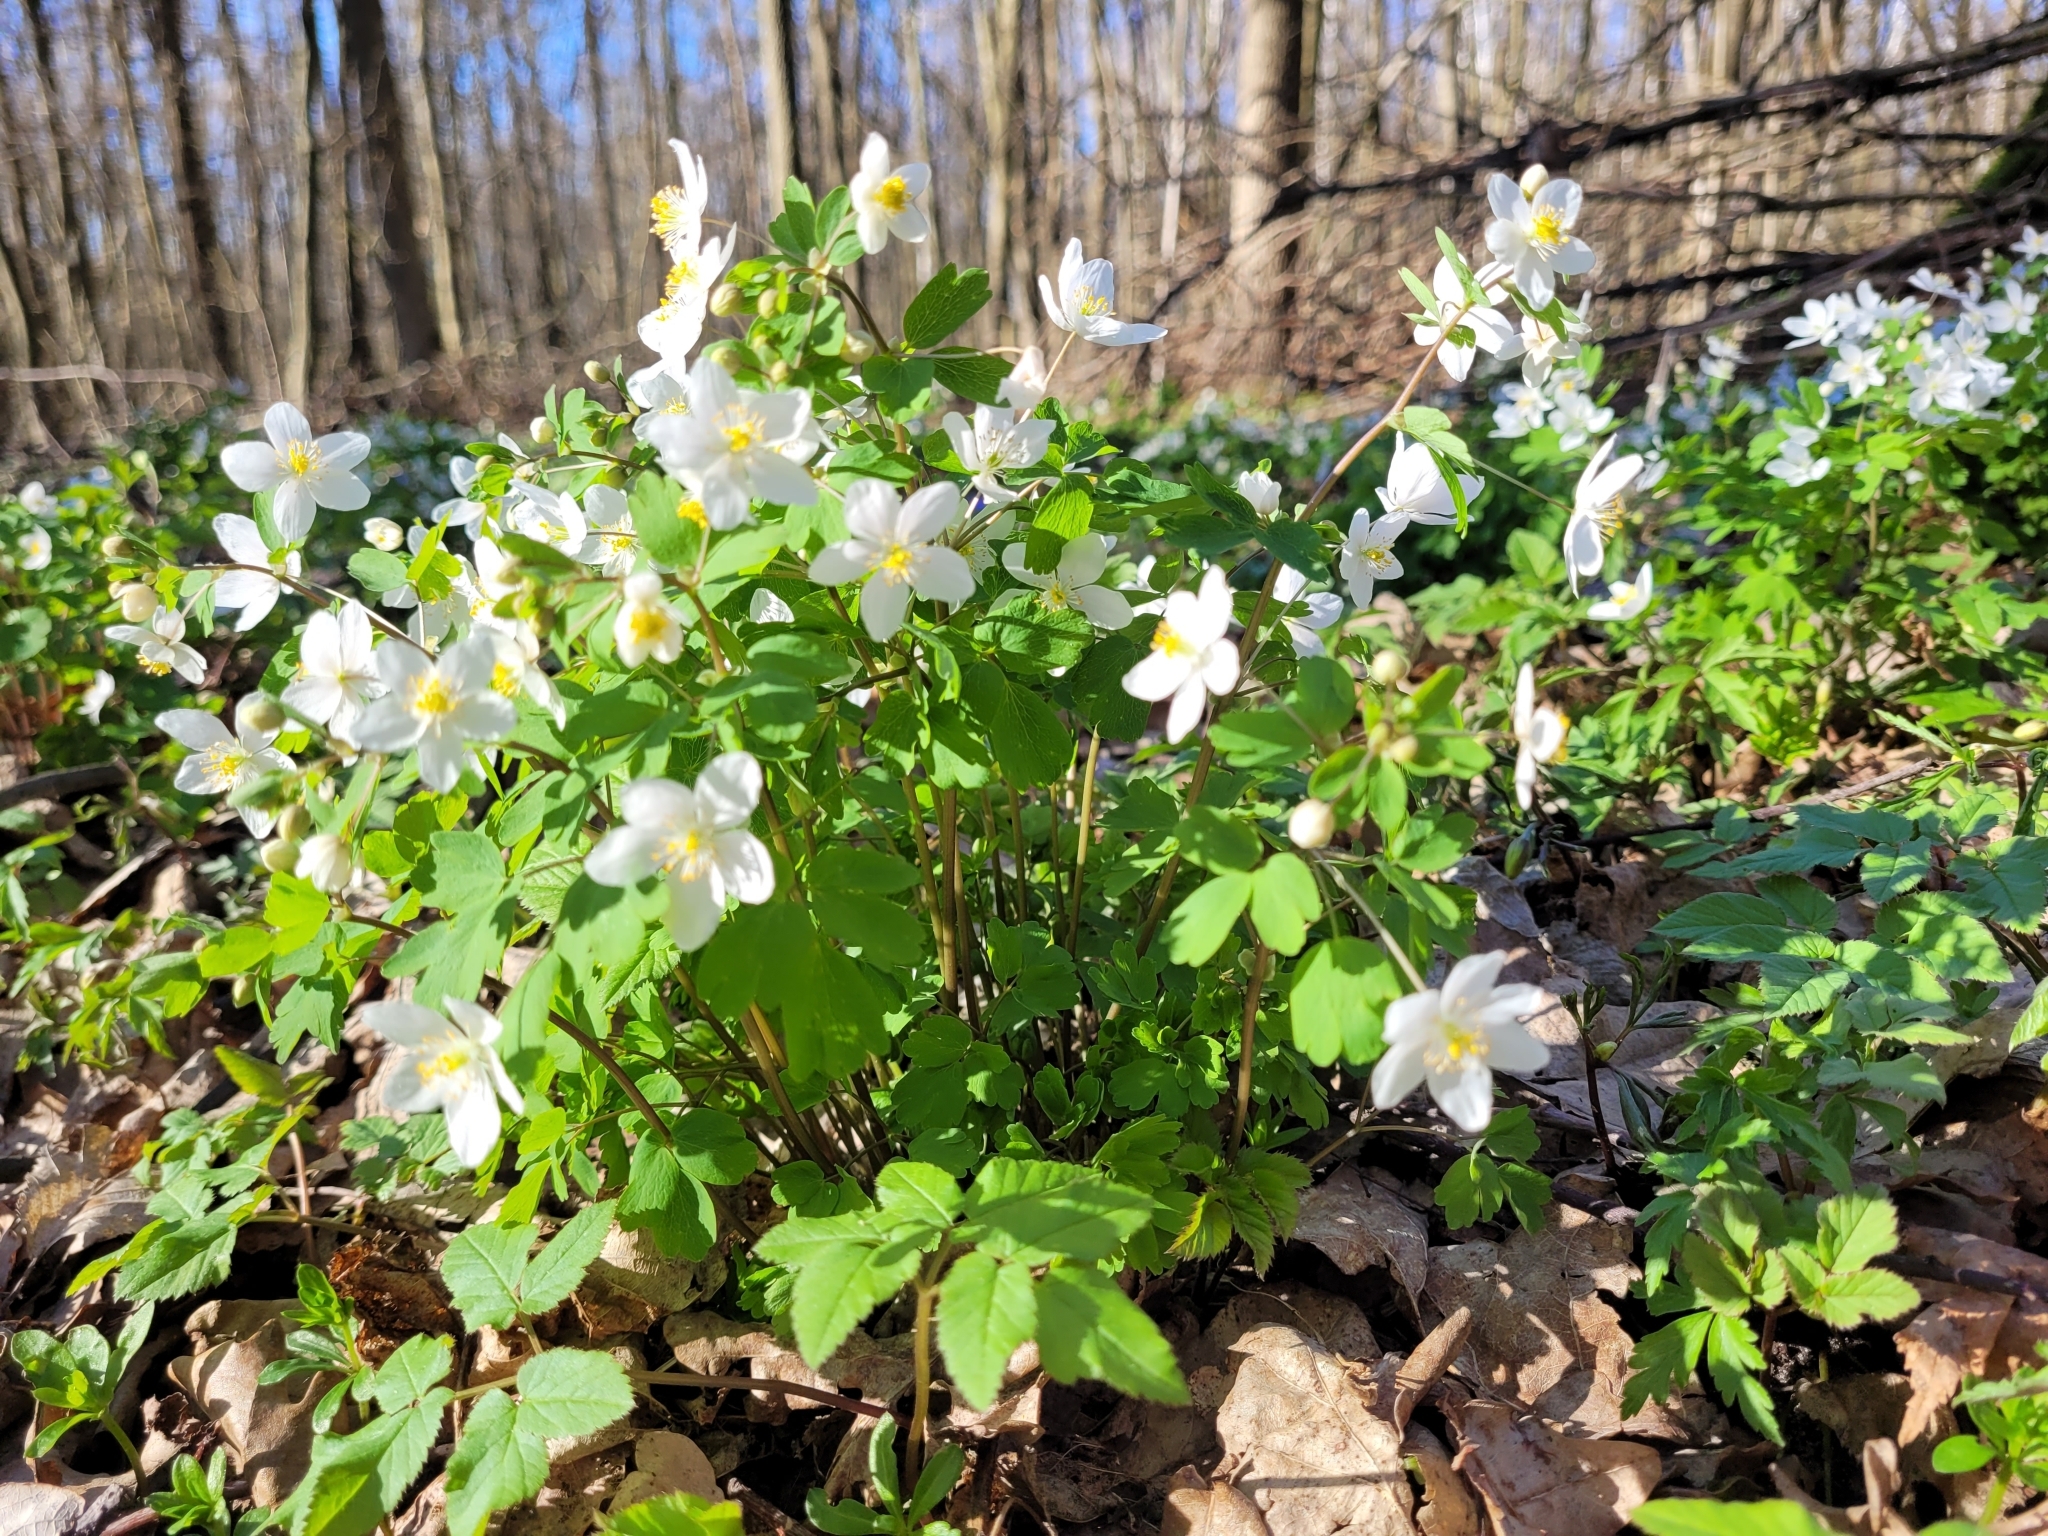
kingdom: Plantae
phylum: Tracheophyta
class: Magnoliopsida
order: Ranunculales
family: Ranunculaceae
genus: Isopyrum
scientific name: Isopyrum thalictroides
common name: Isopyrum
